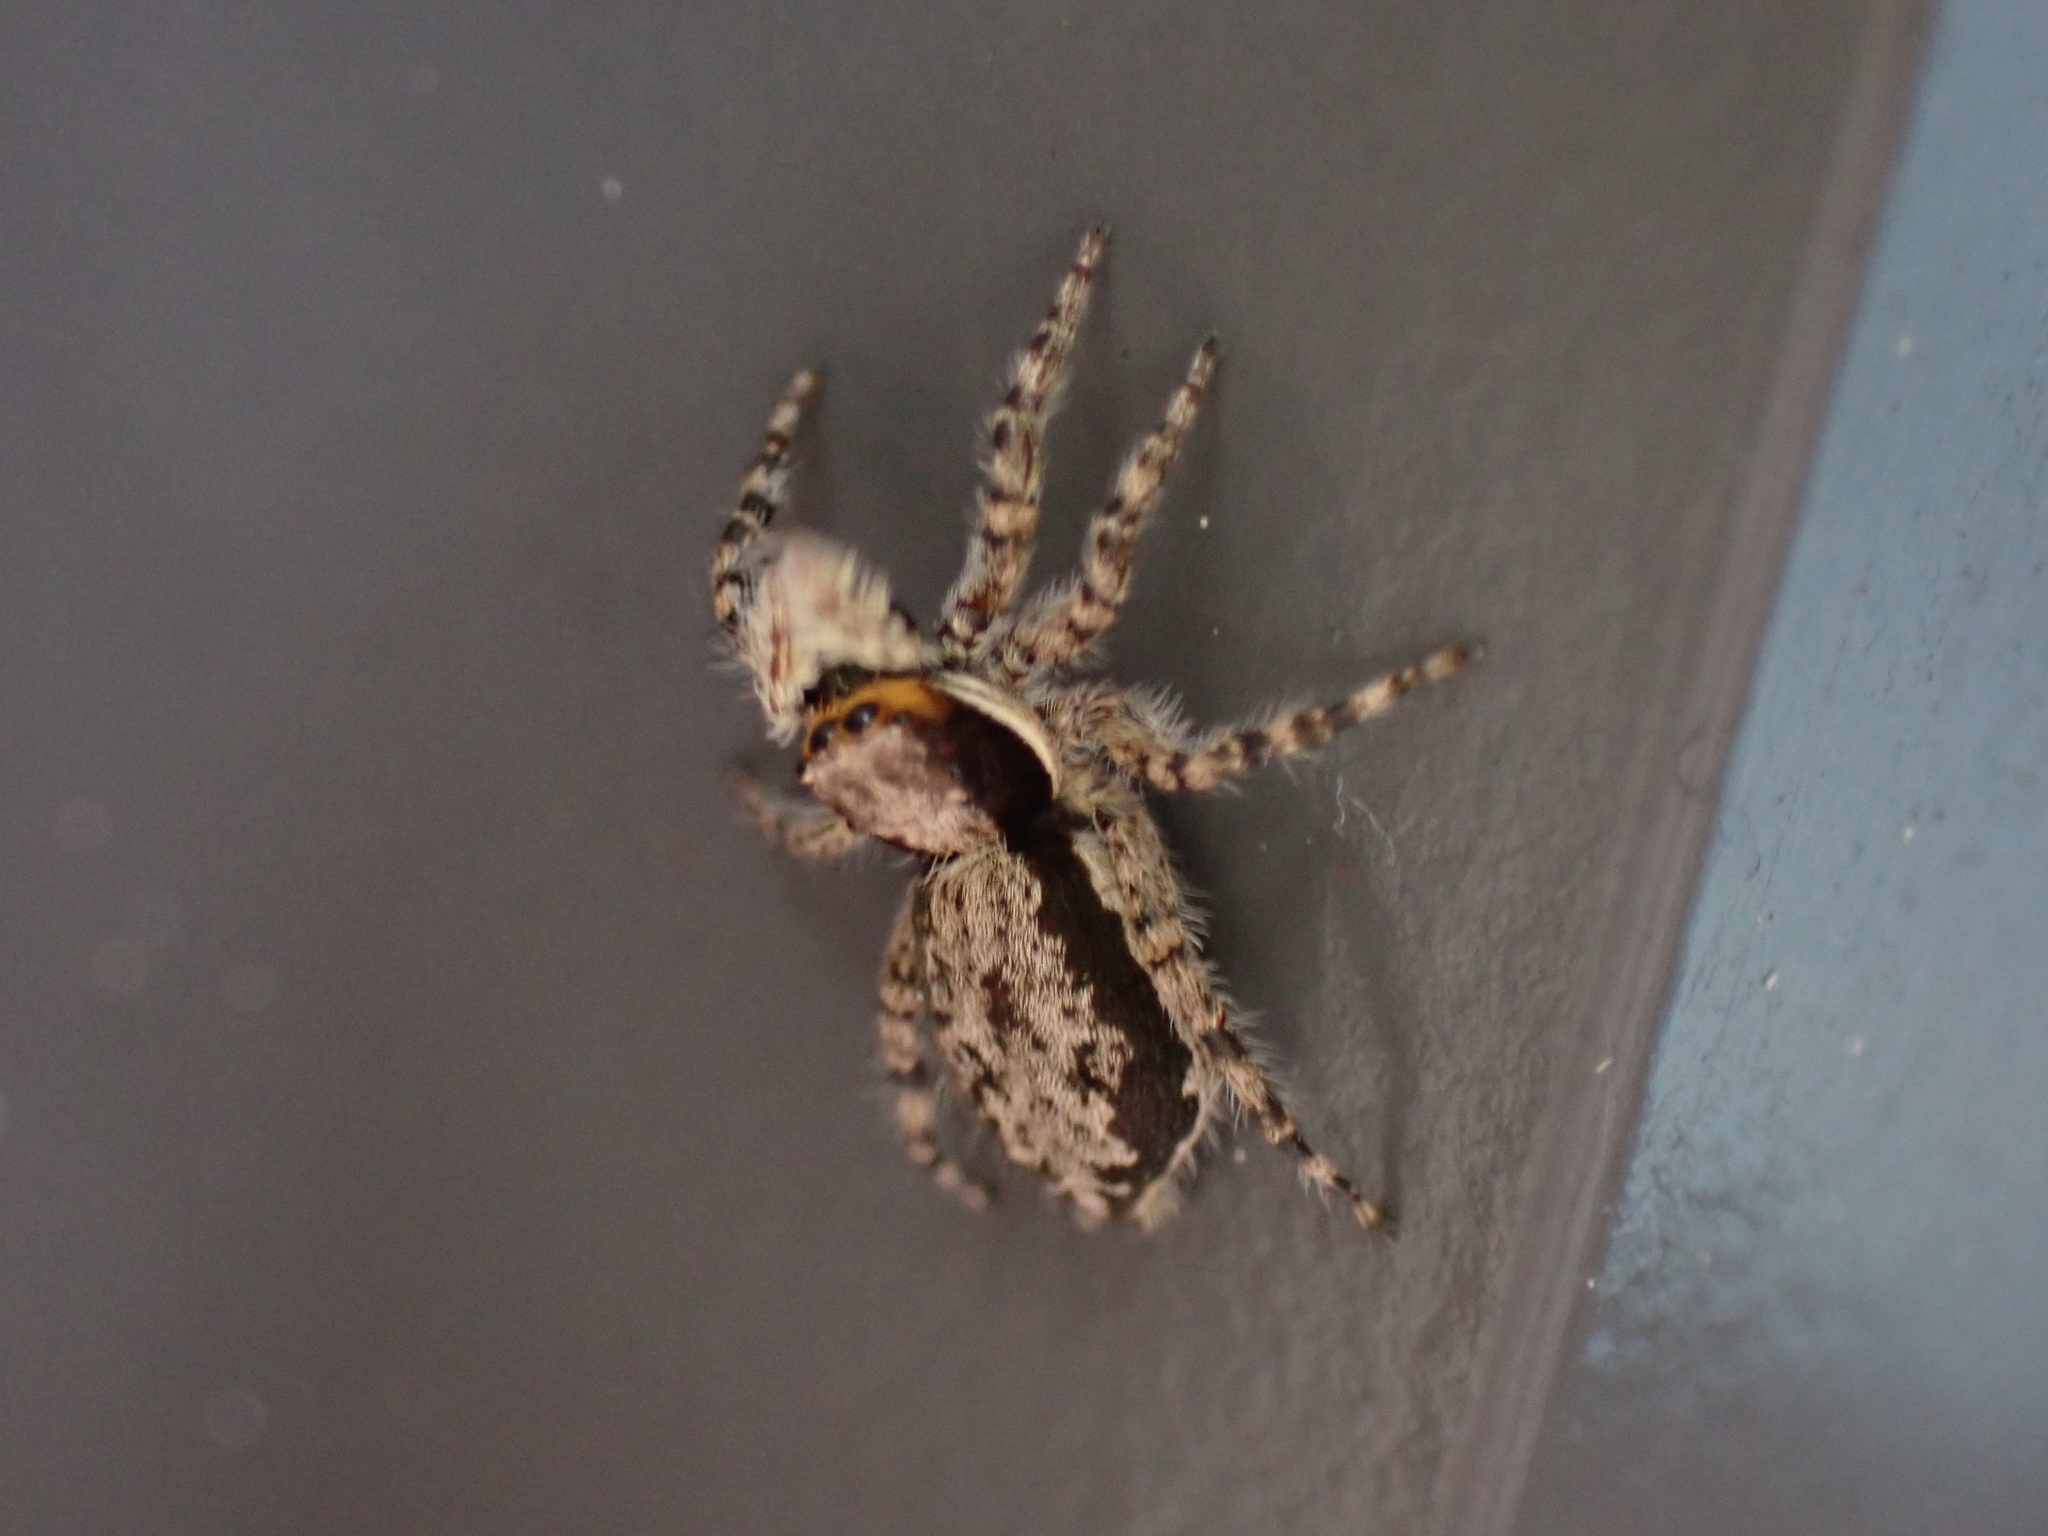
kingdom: Animalia
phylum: Arthropoda
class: Arachnida
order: Araneae
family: Salticidae
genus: Menemerus
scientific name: Menemerus bivittatus
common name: Gray wall jumper
